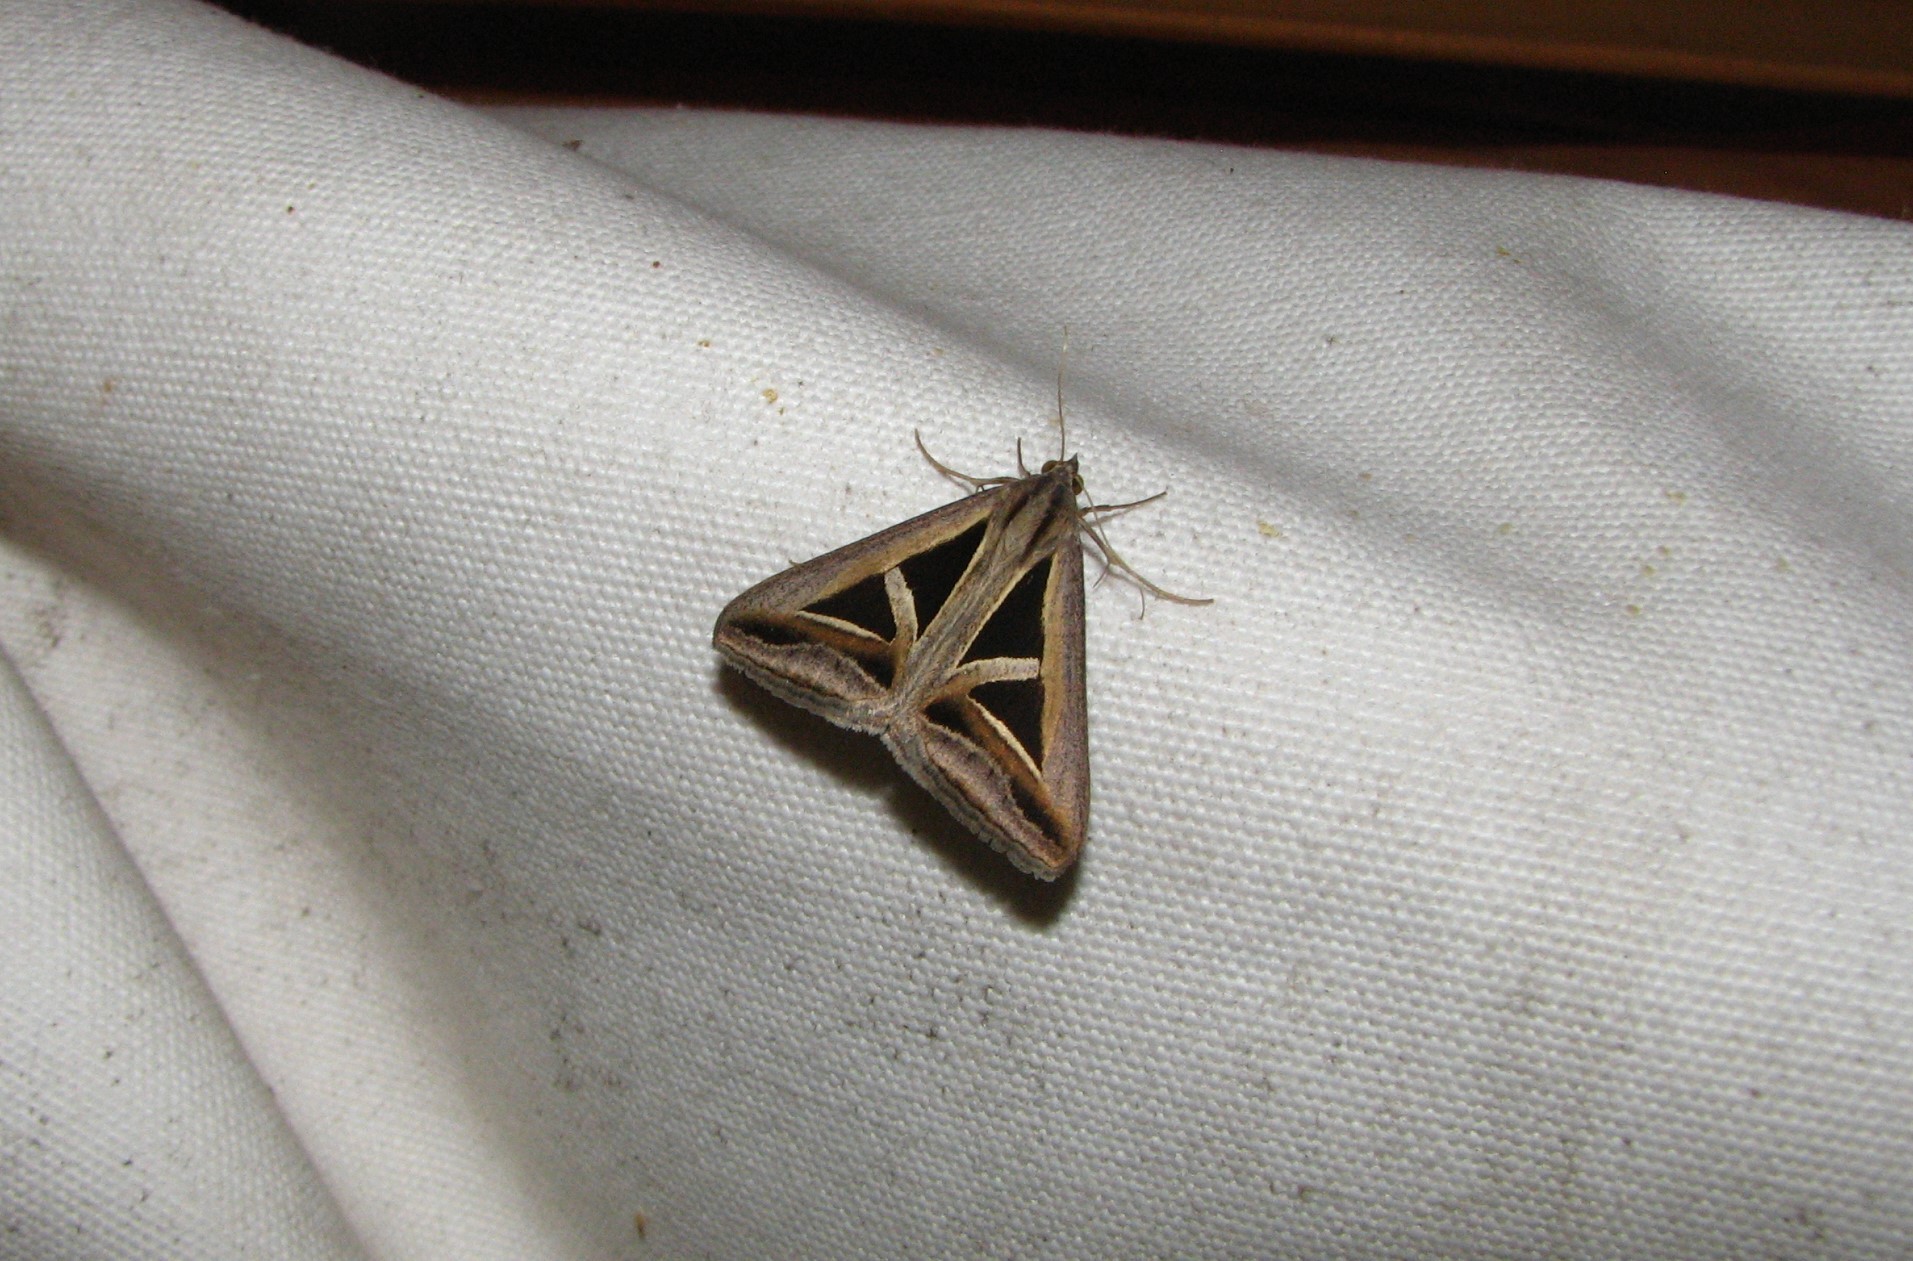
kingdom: Animalia
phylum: Arthropoda
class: Insecta
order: Lepidoptera
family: Erebidae
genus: Trigonodes
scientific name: Trigonodes hyppasia
